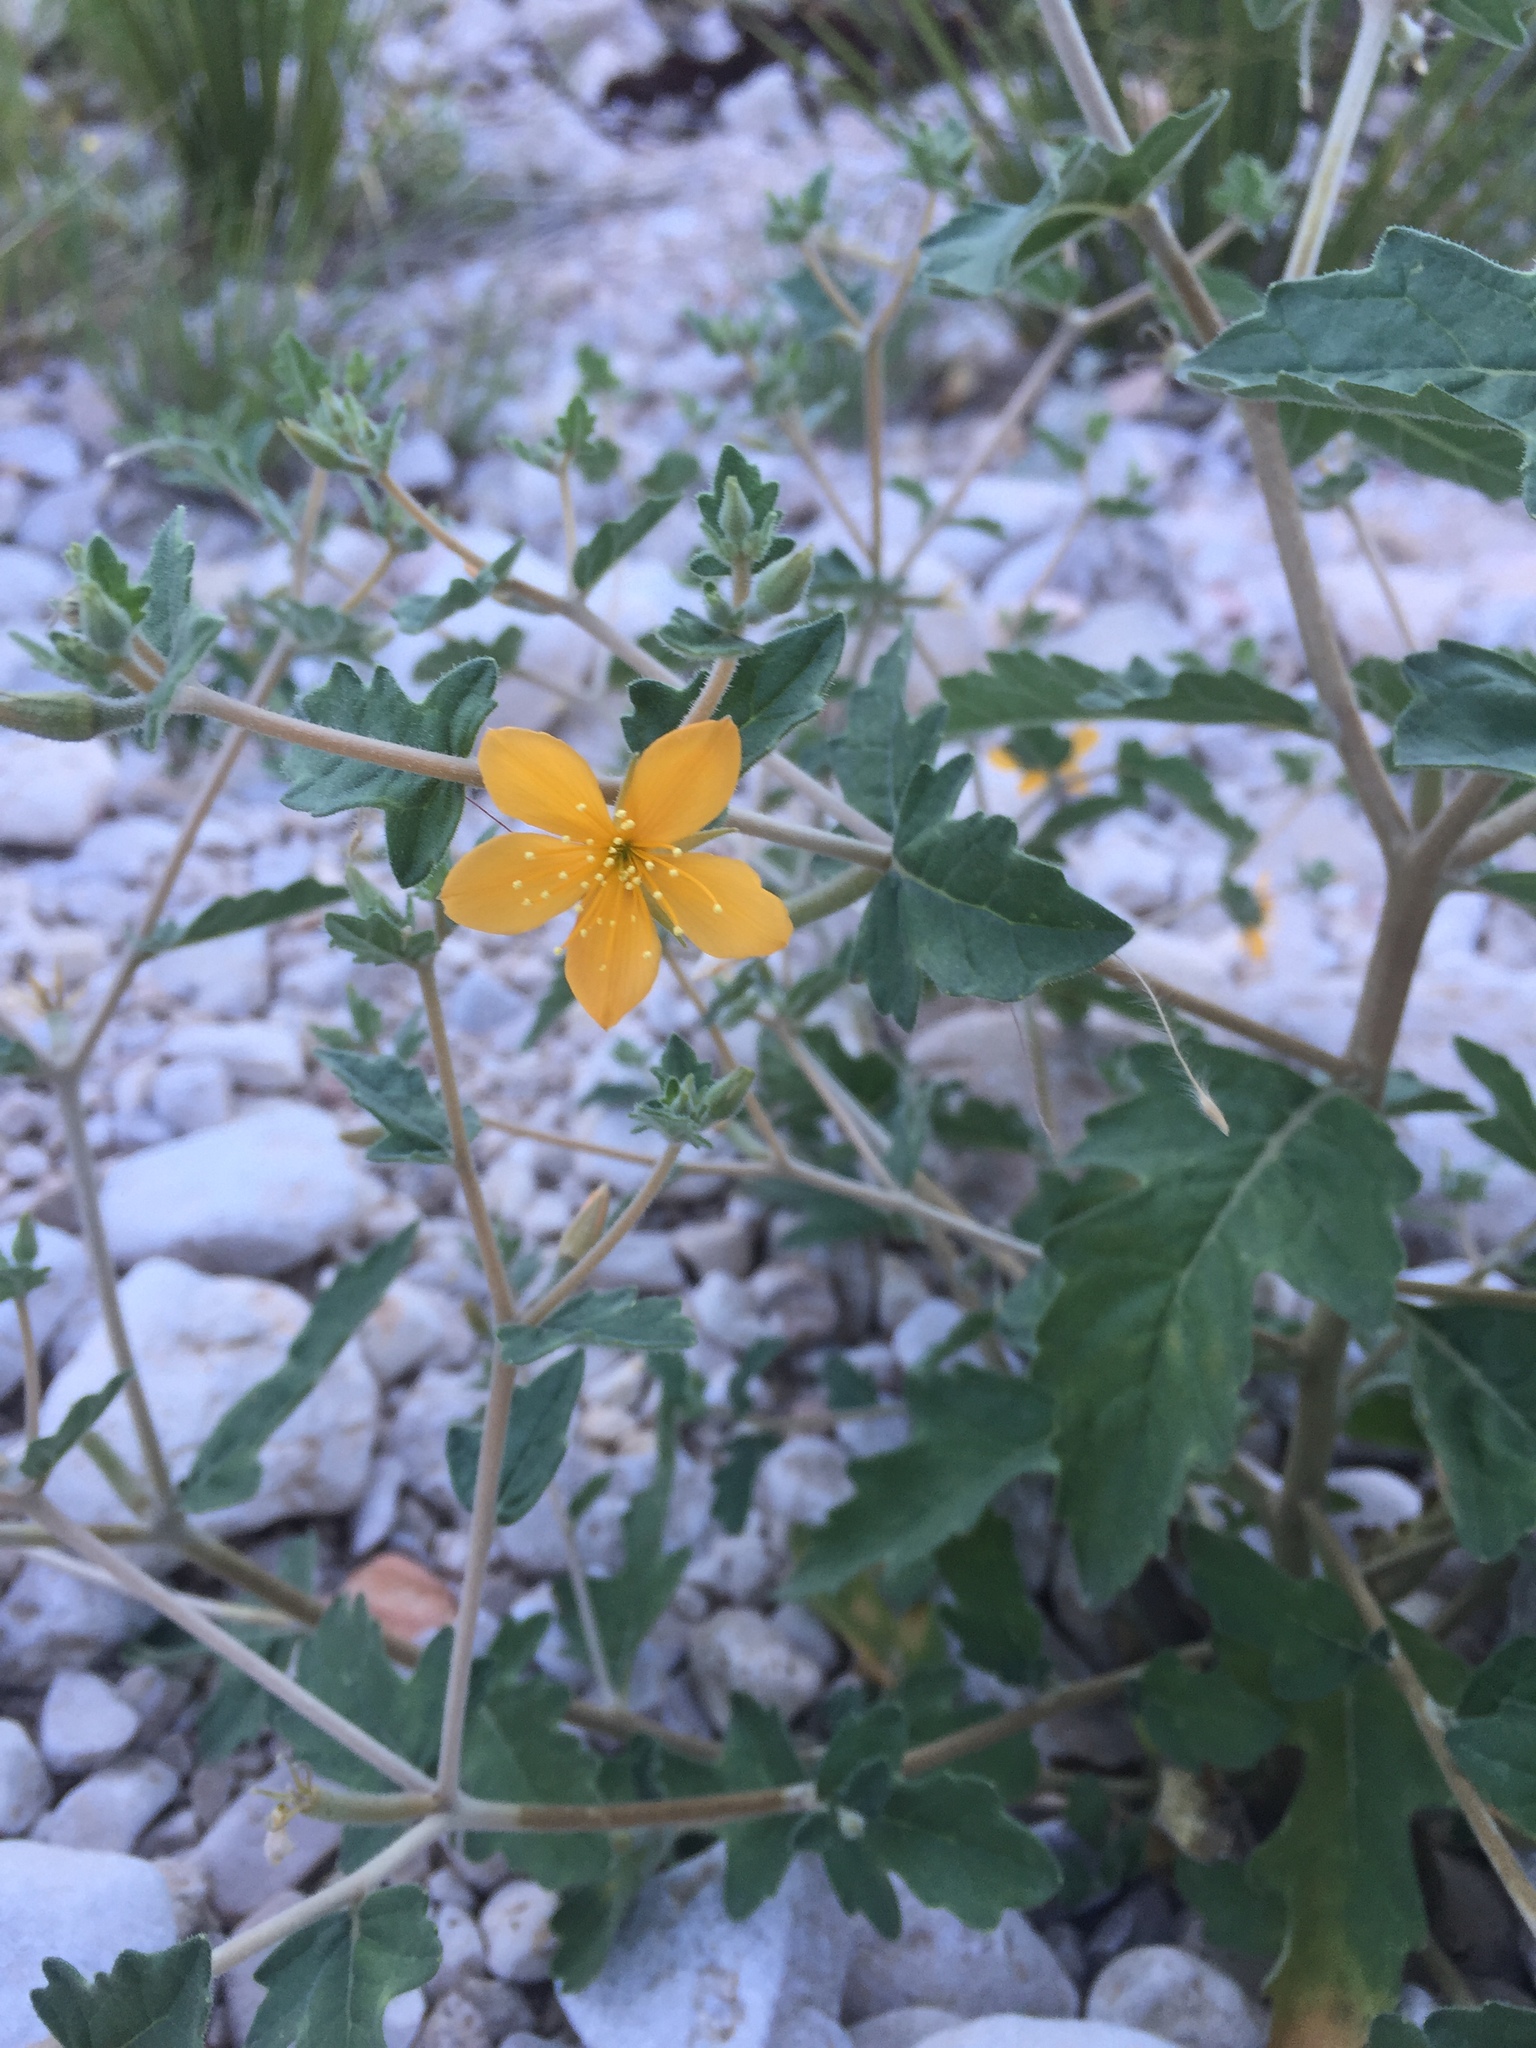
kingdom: Plantae
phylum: Tracheophyta
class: Magnoliopsida
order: Cornales
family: Loasaceae
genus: Mentzelia
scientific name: Mentzelia oligosperma
